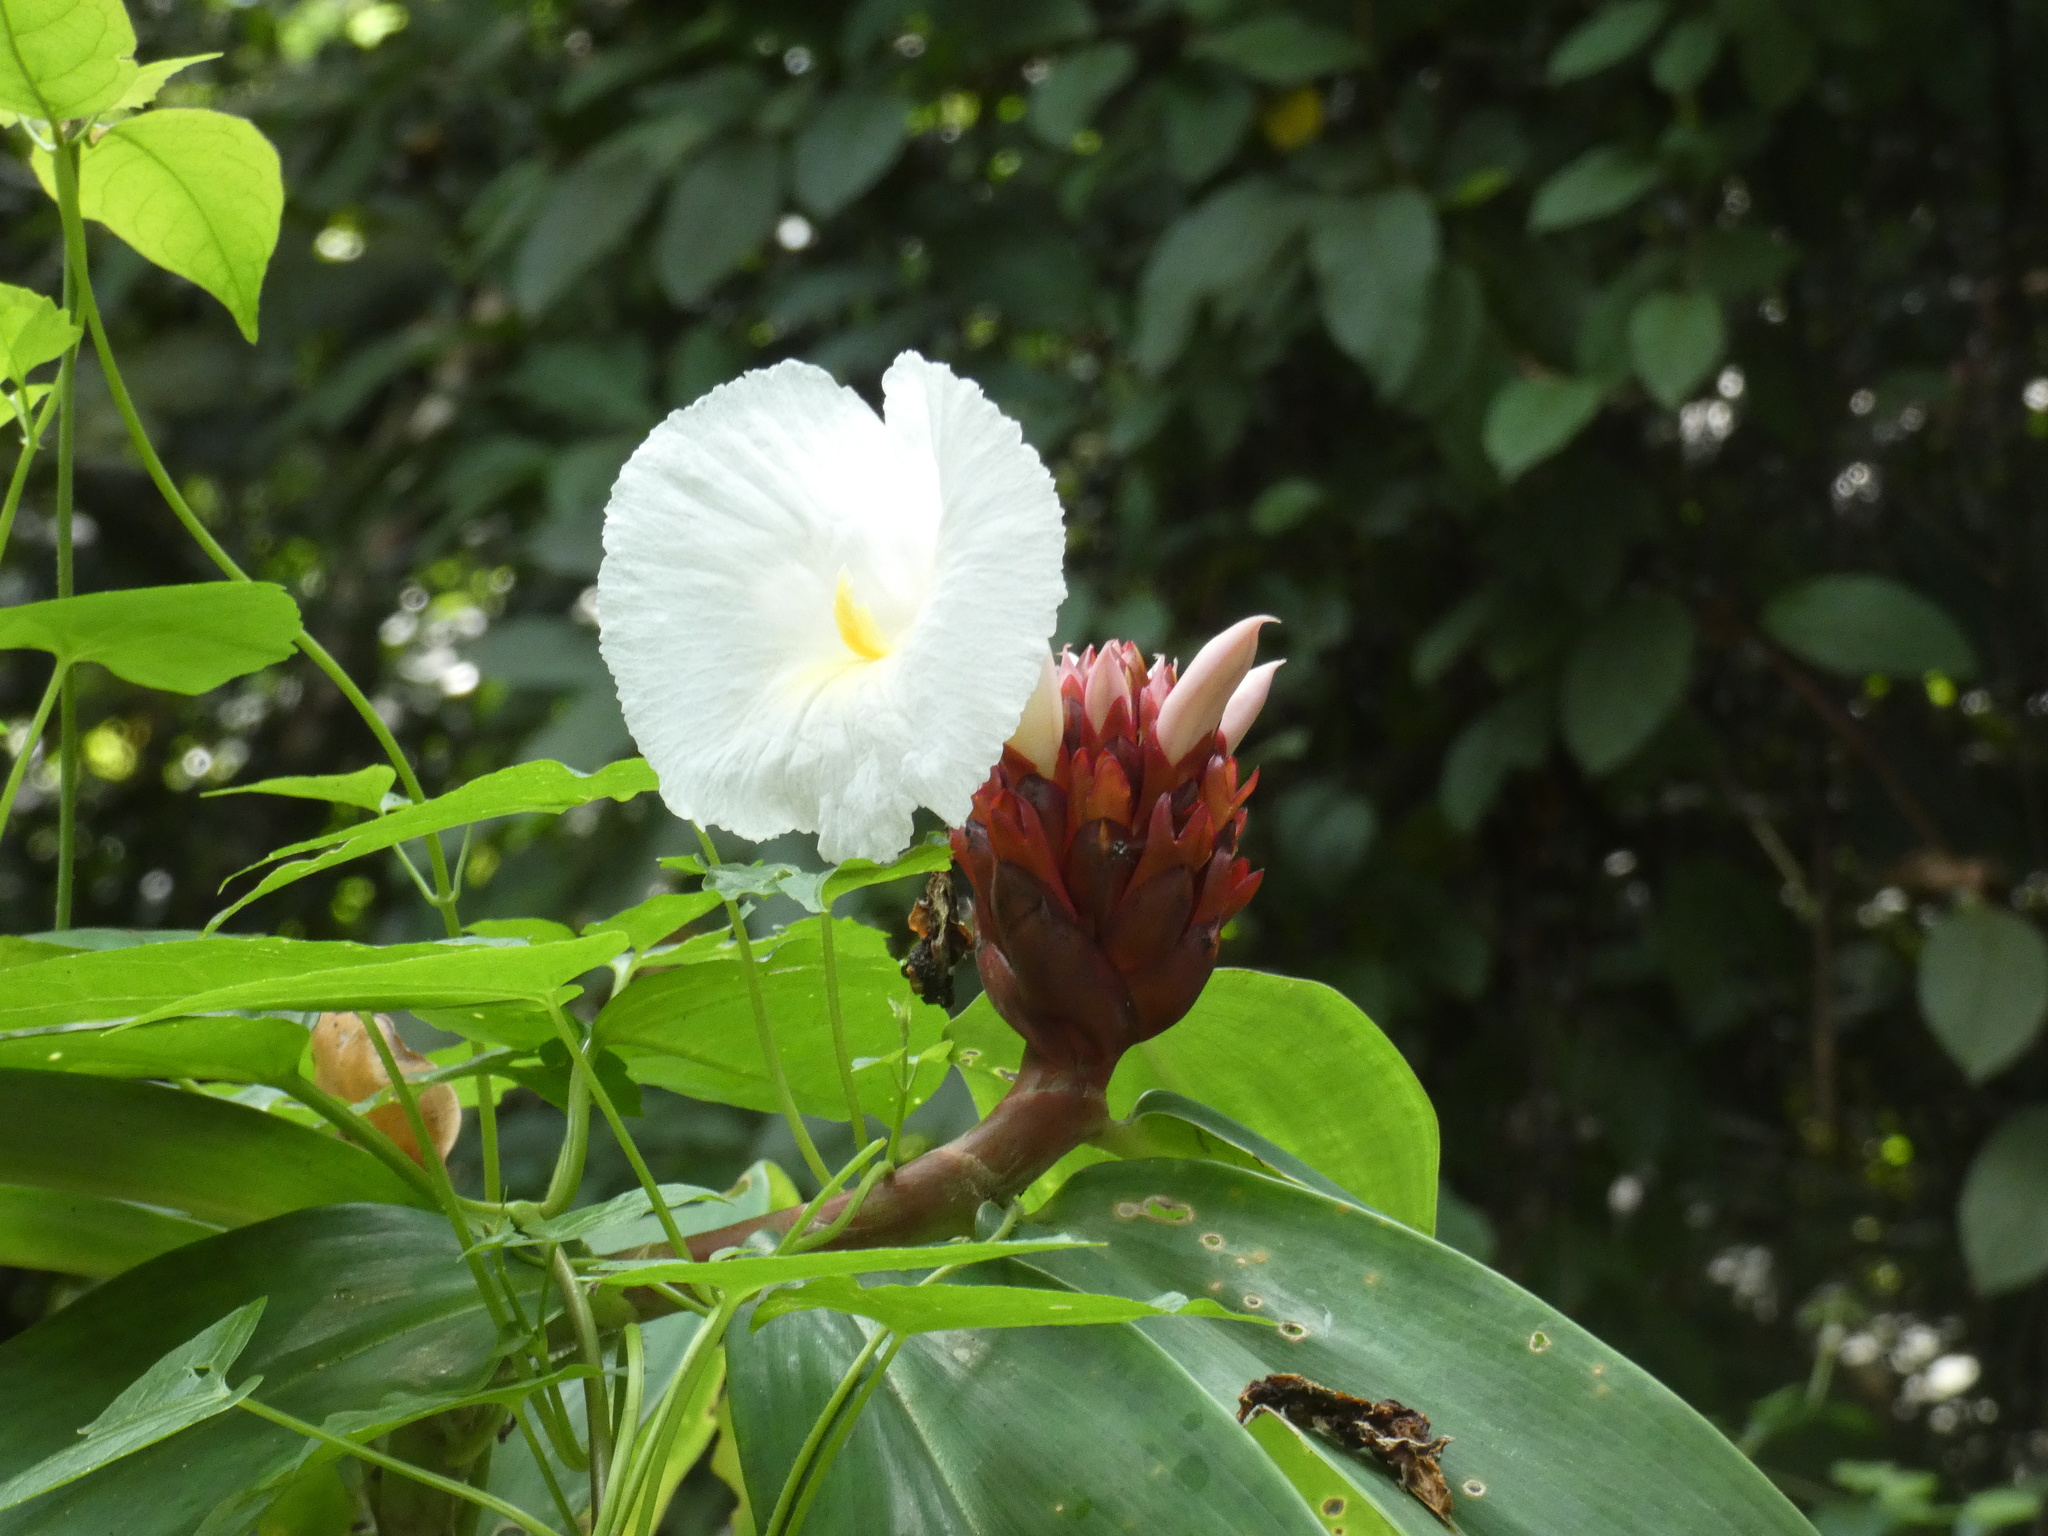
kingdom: Plantae
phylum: Tracheophyta
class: Liliopsida
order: Zingiberales
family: Costaceae
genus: Hellenia
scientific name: Hellenia speciosa
